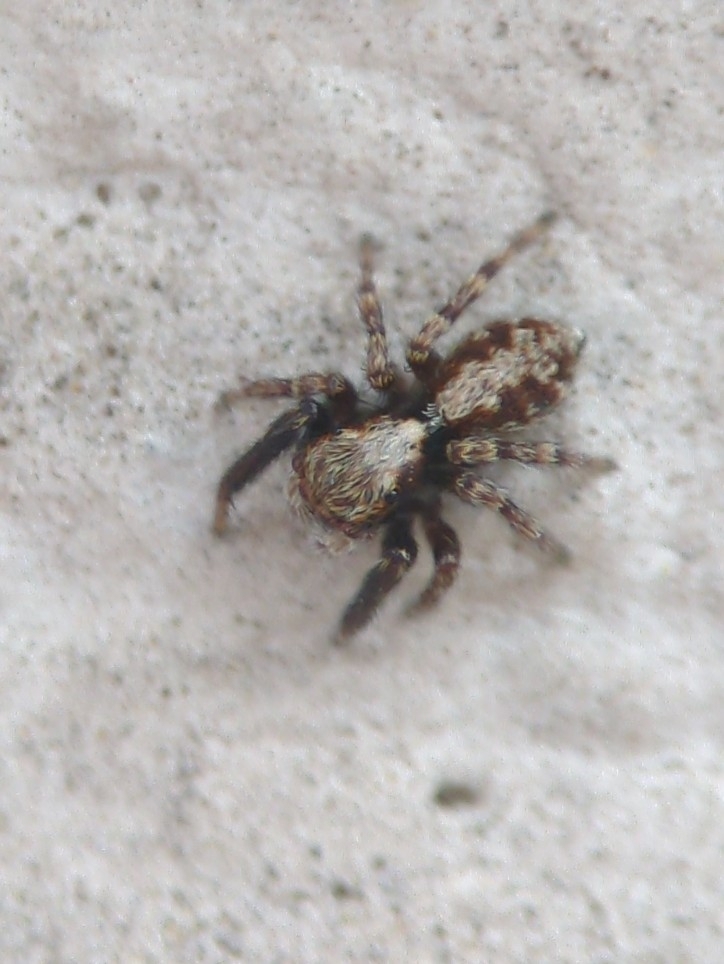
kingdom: Animalia
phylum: Arthropoda
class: Arachnida
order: Araneae
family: Salticidae
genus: Pseudeuophrys
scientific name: Pseudeuophrys lanigera
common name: Jumping spider
